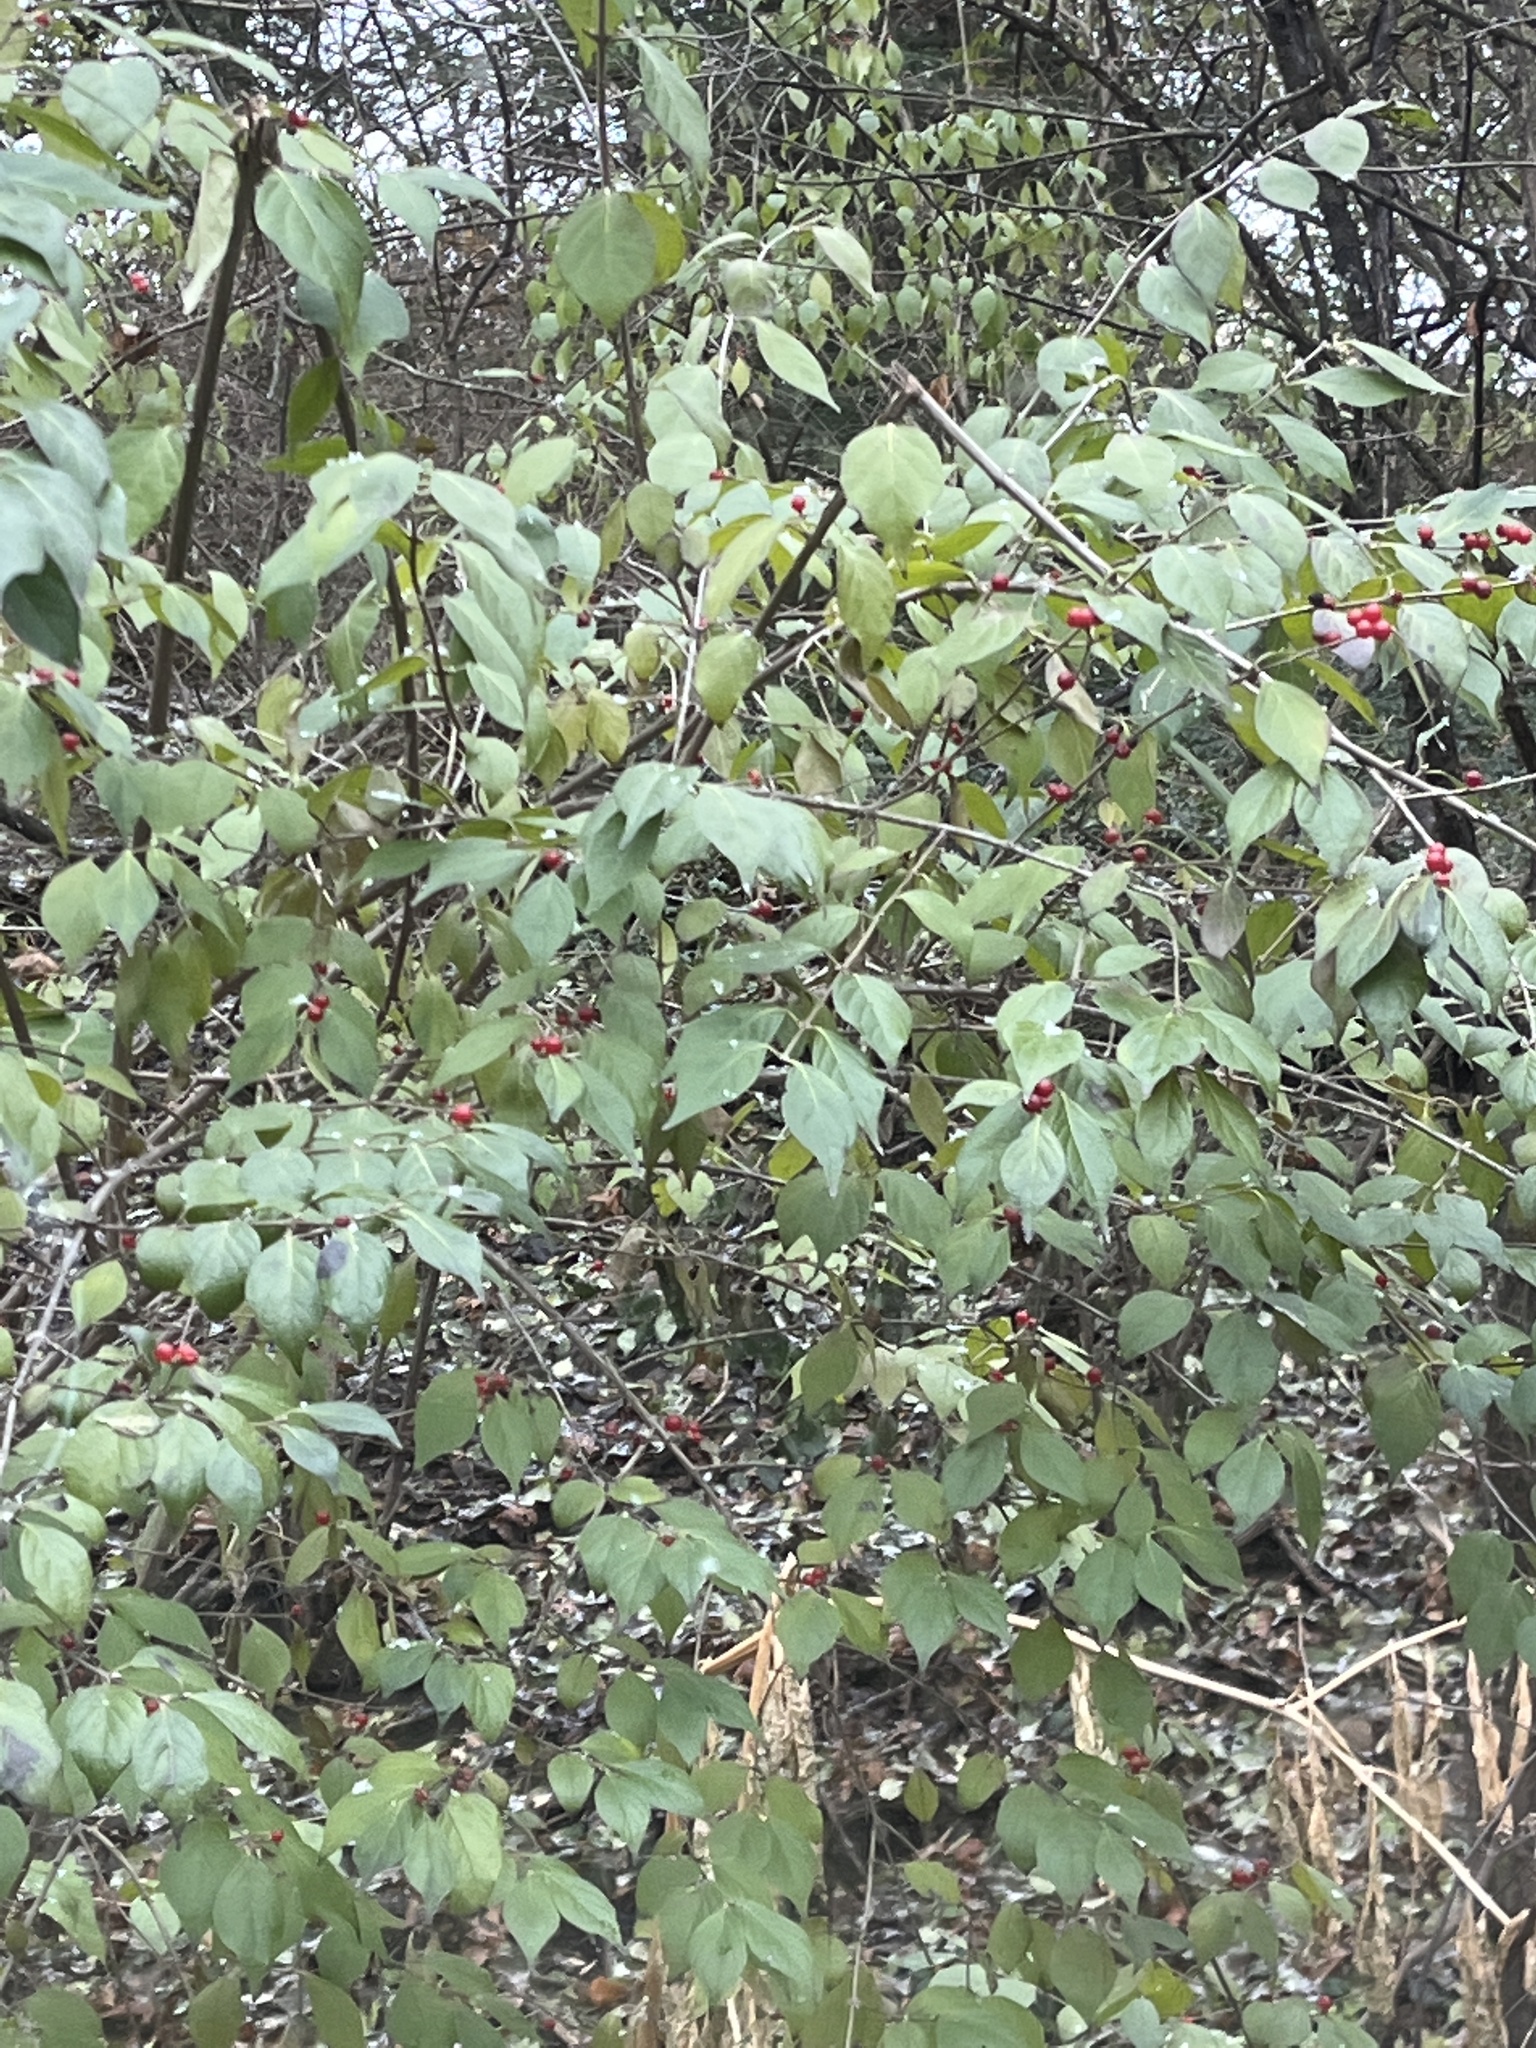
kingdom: Plantae
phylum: Tracheophyta
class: Magnoliopsida
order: Dipsacales
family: Caprifoliaceae
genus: Lonicera
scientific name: Lonicera maackii
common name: Amur honeysuckle
